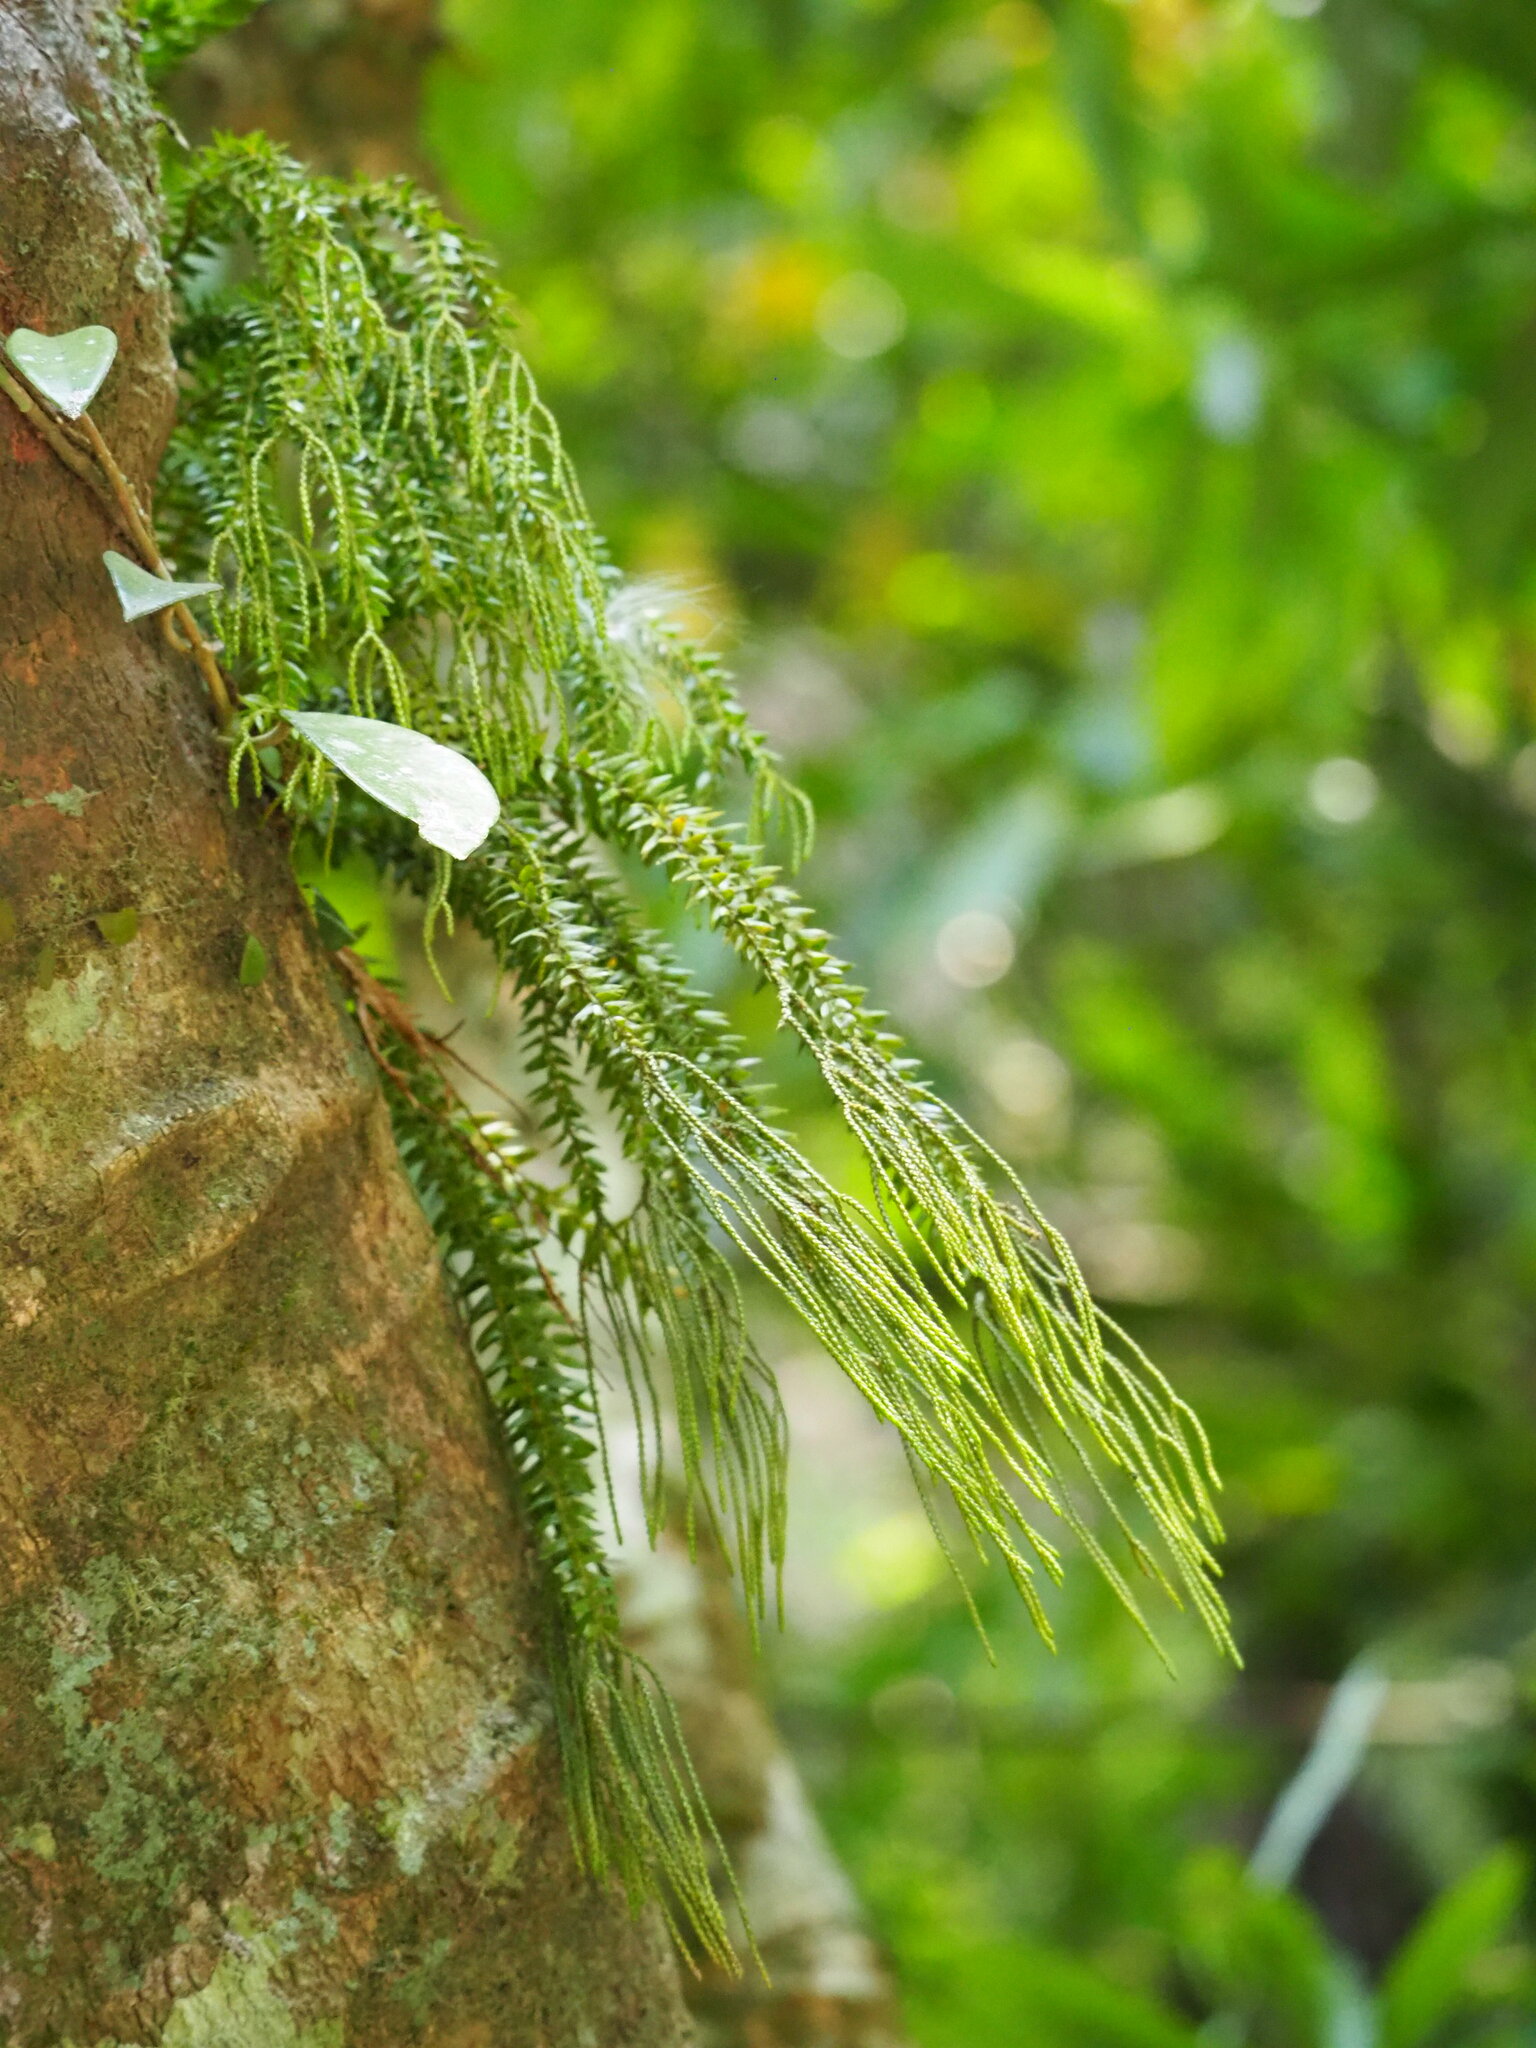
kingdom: Plantae
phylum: Tracheophyta
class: Lycopodiopsida
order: Lycopodiales
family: Lycopodiaceae
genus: Phlegmariurus
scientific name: Phlegmariurus phlegmaria
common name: Coarse tassel-fern
